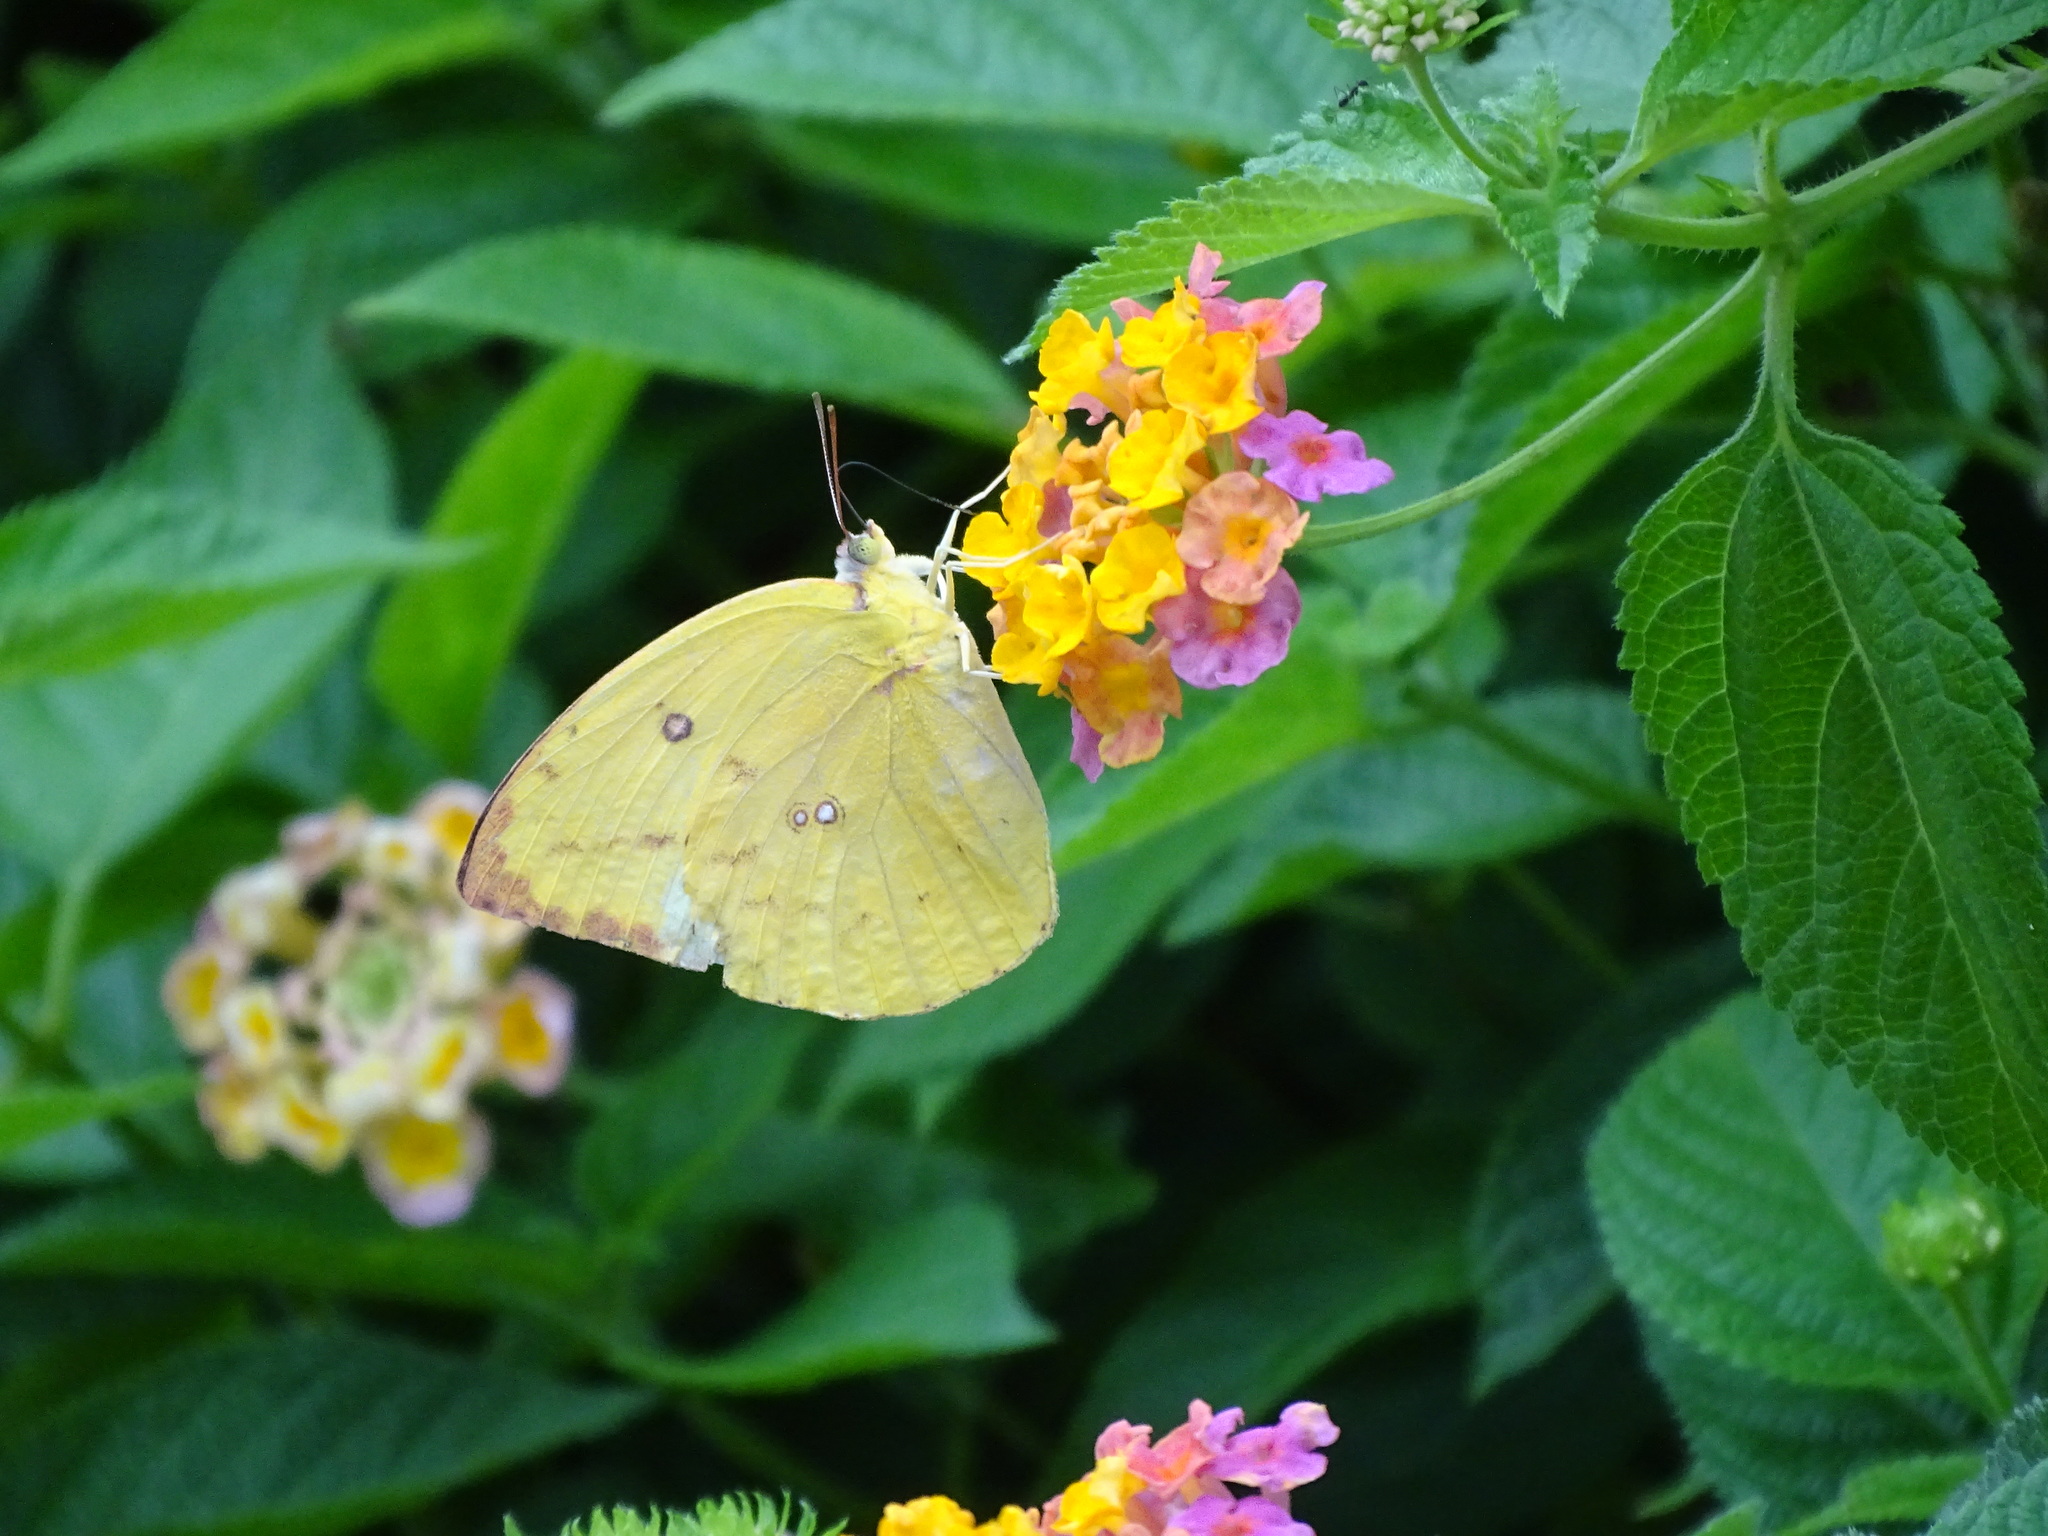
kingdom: Animalia
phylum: Arthropoda
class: Insecta
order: Lepidoptera
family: Pieridae
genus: Catopsilia
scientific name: Catopsilia pomona
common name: Common emigrant
